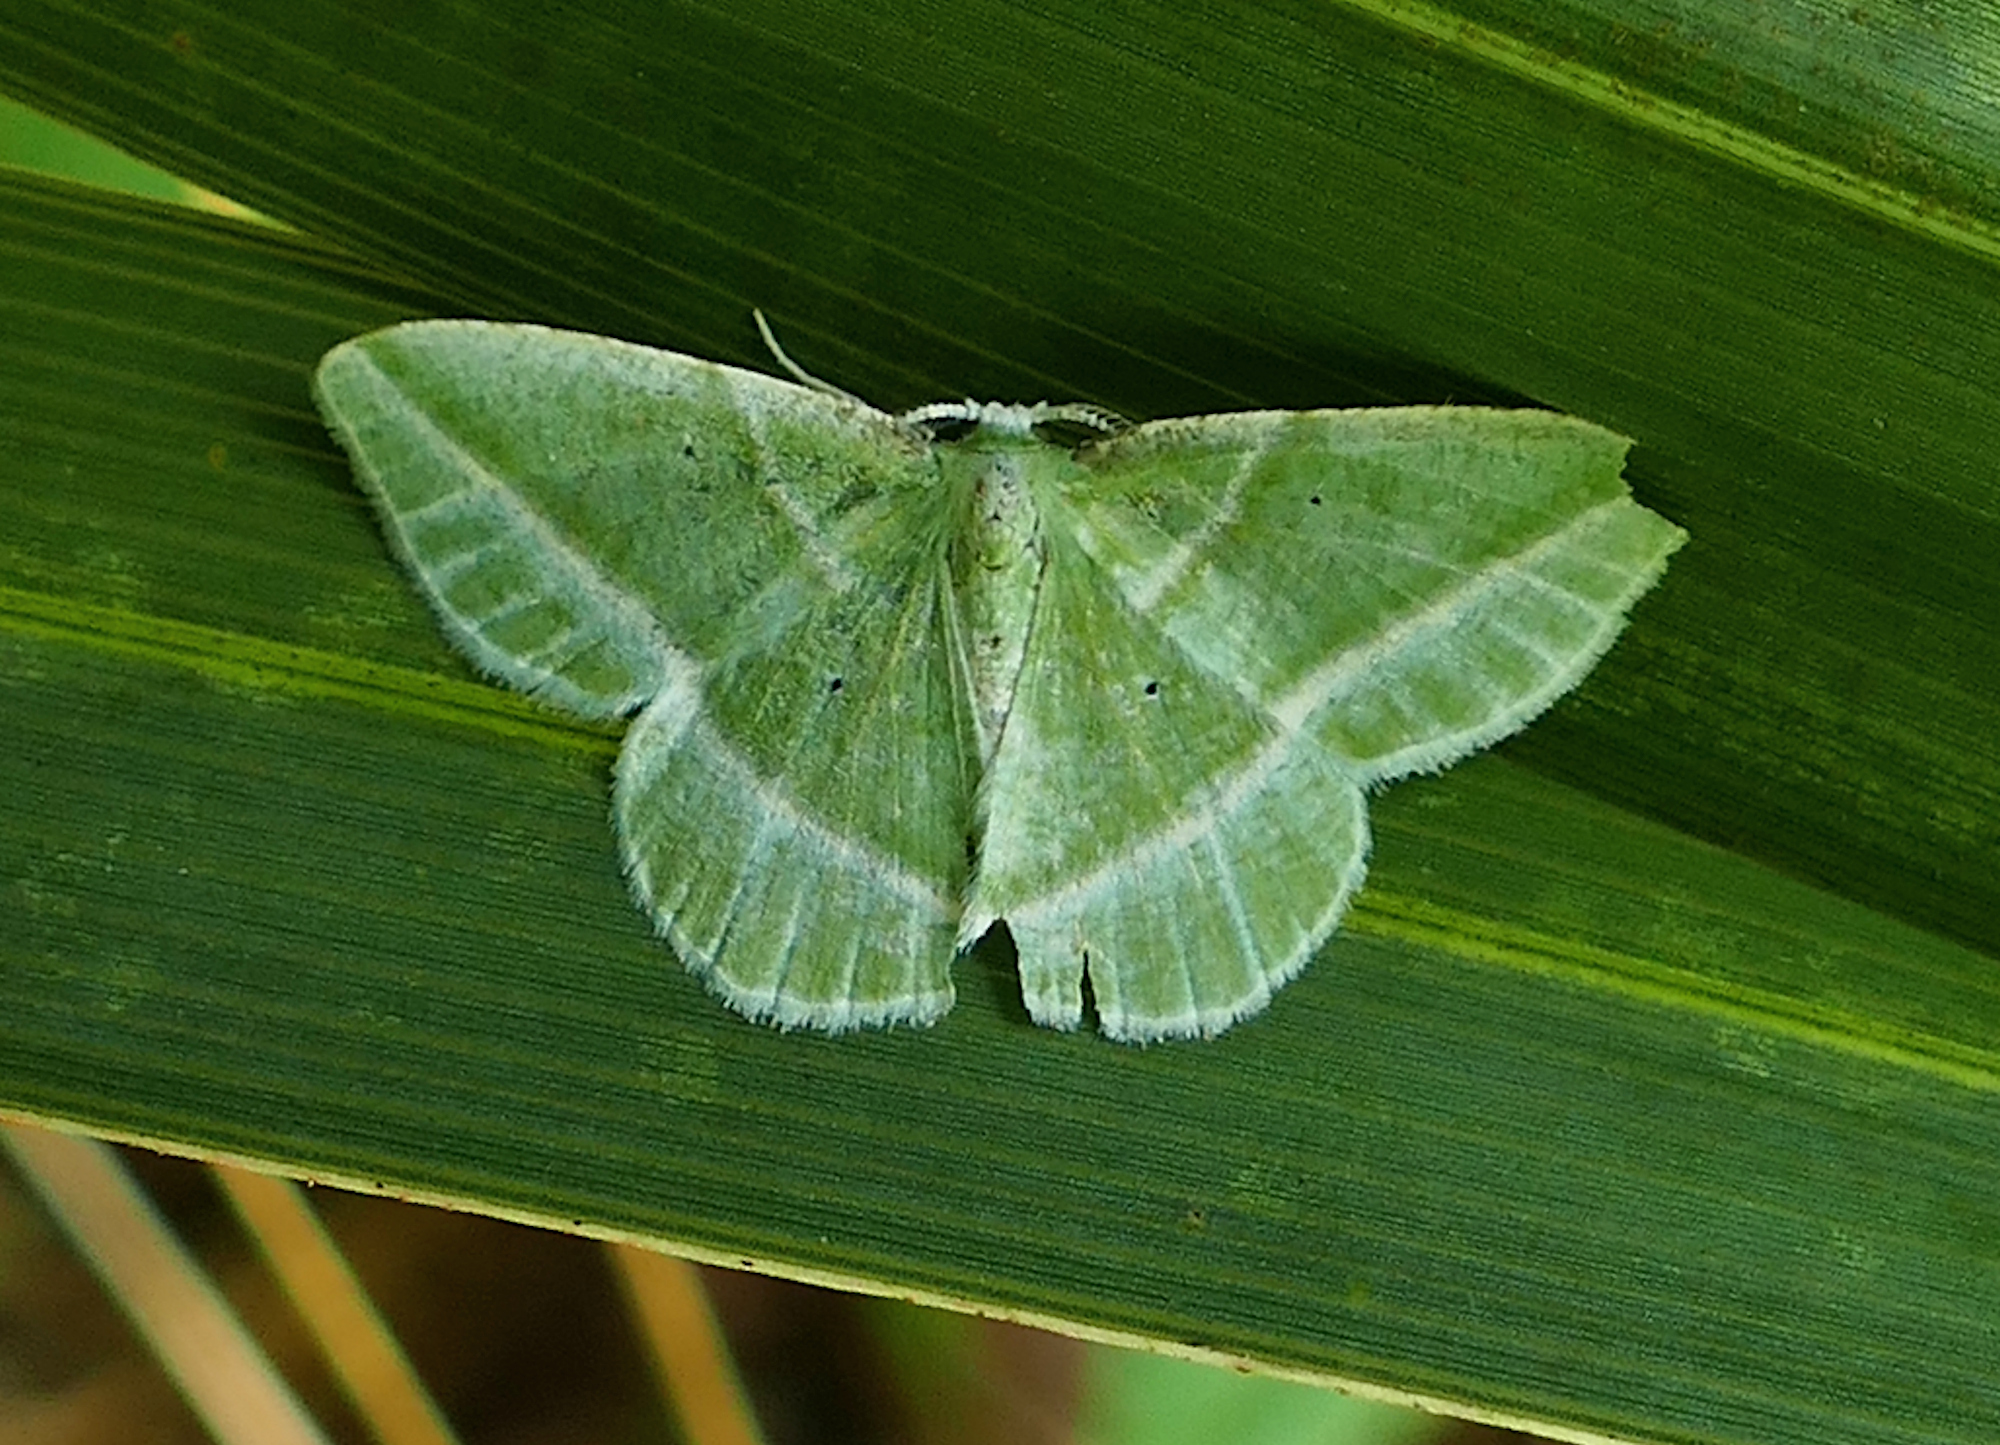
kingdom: Animalia
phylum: Arthropoda
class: Insecta
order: Lepidoptera
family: Geometridae
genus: Dichorda
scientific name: Dichorda iridaria
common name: Showy emerald
